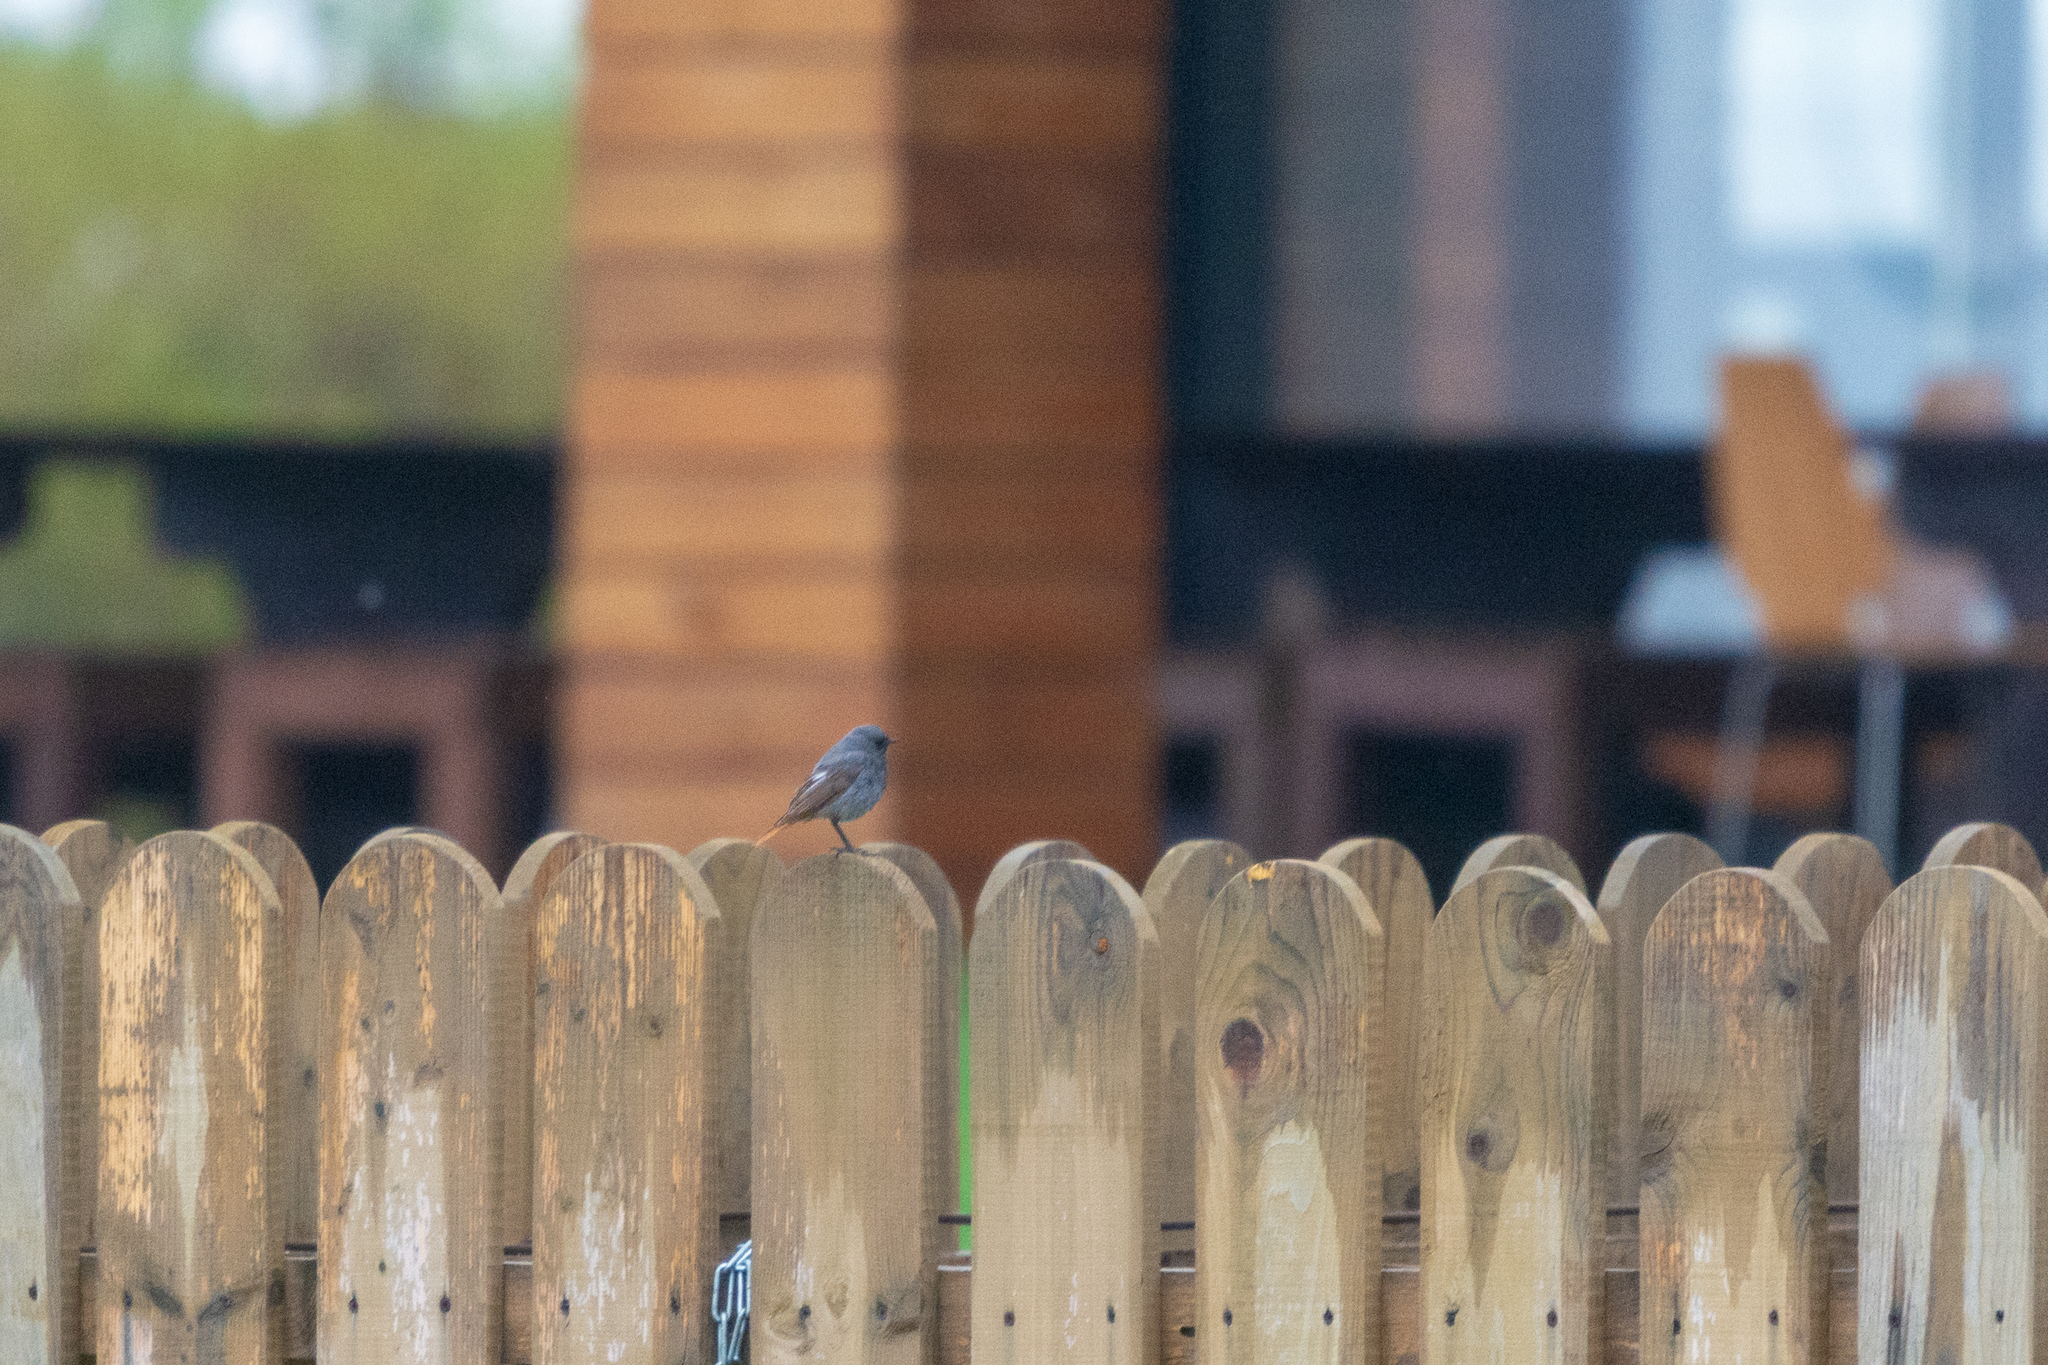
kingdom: Animalia
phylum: Chordata
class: Aves
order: Passeriformes
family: Muscicapidae
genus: Phoenicurus
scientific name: Phoenicurus ochruros
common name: Black redstart
